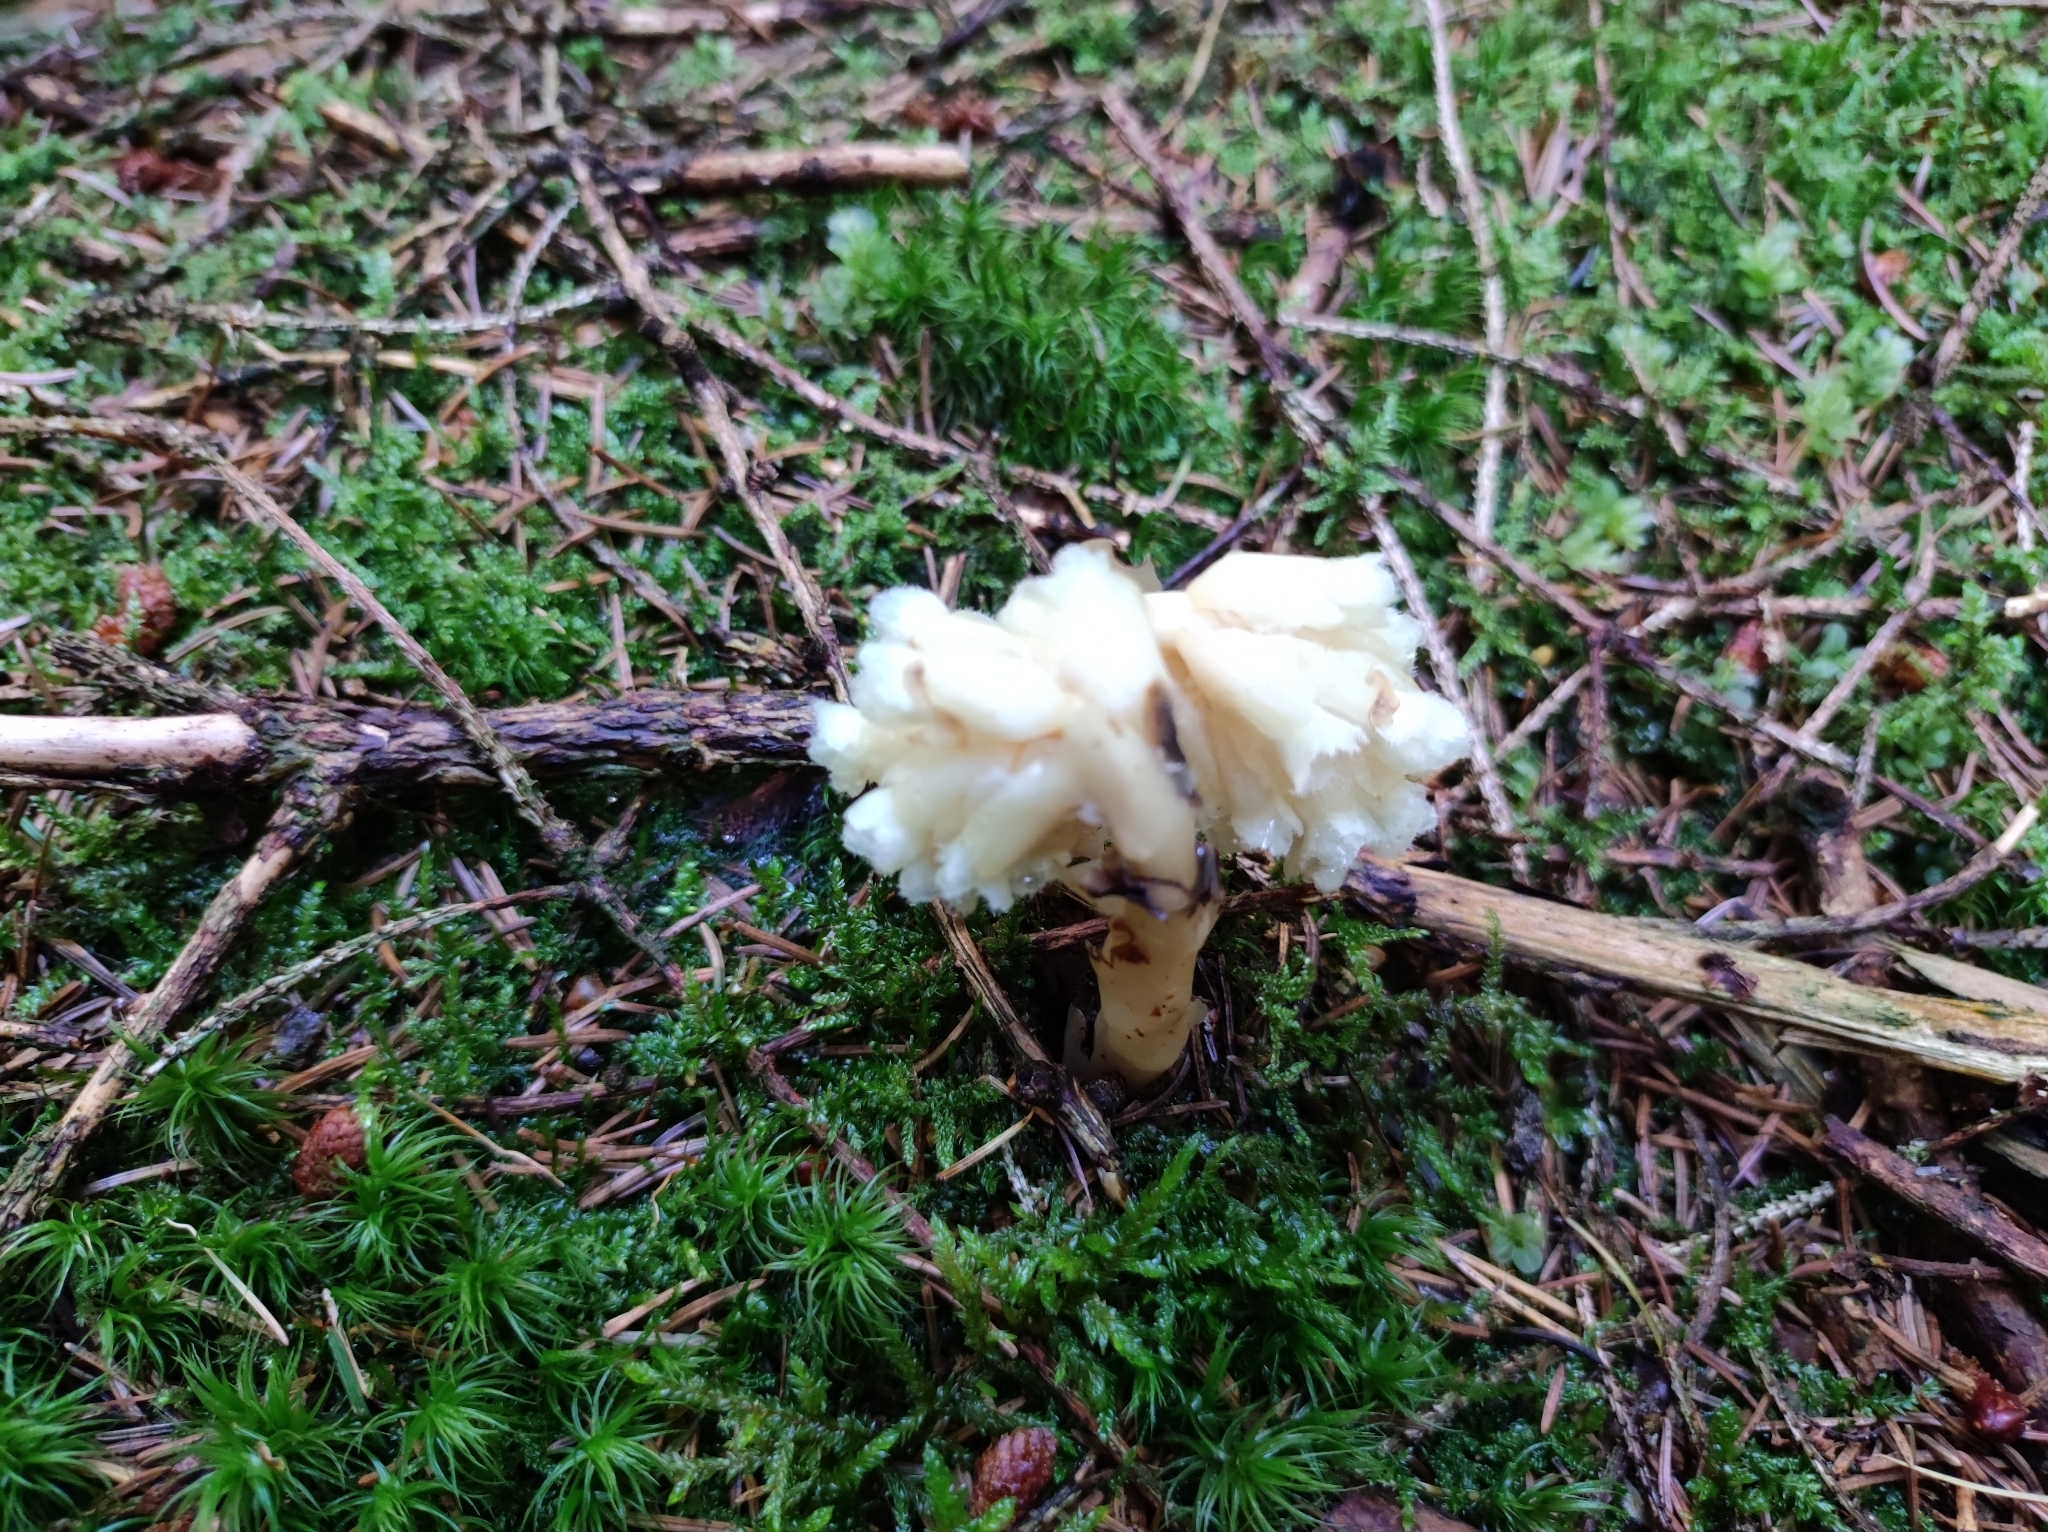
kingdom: Plantae
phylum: Tracheophyta
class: Magnoliopsida
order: Ericales
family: Ericaceae
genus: Hypopitys
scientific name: Hypopitys monotropa
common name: Yellow bird's-nest
